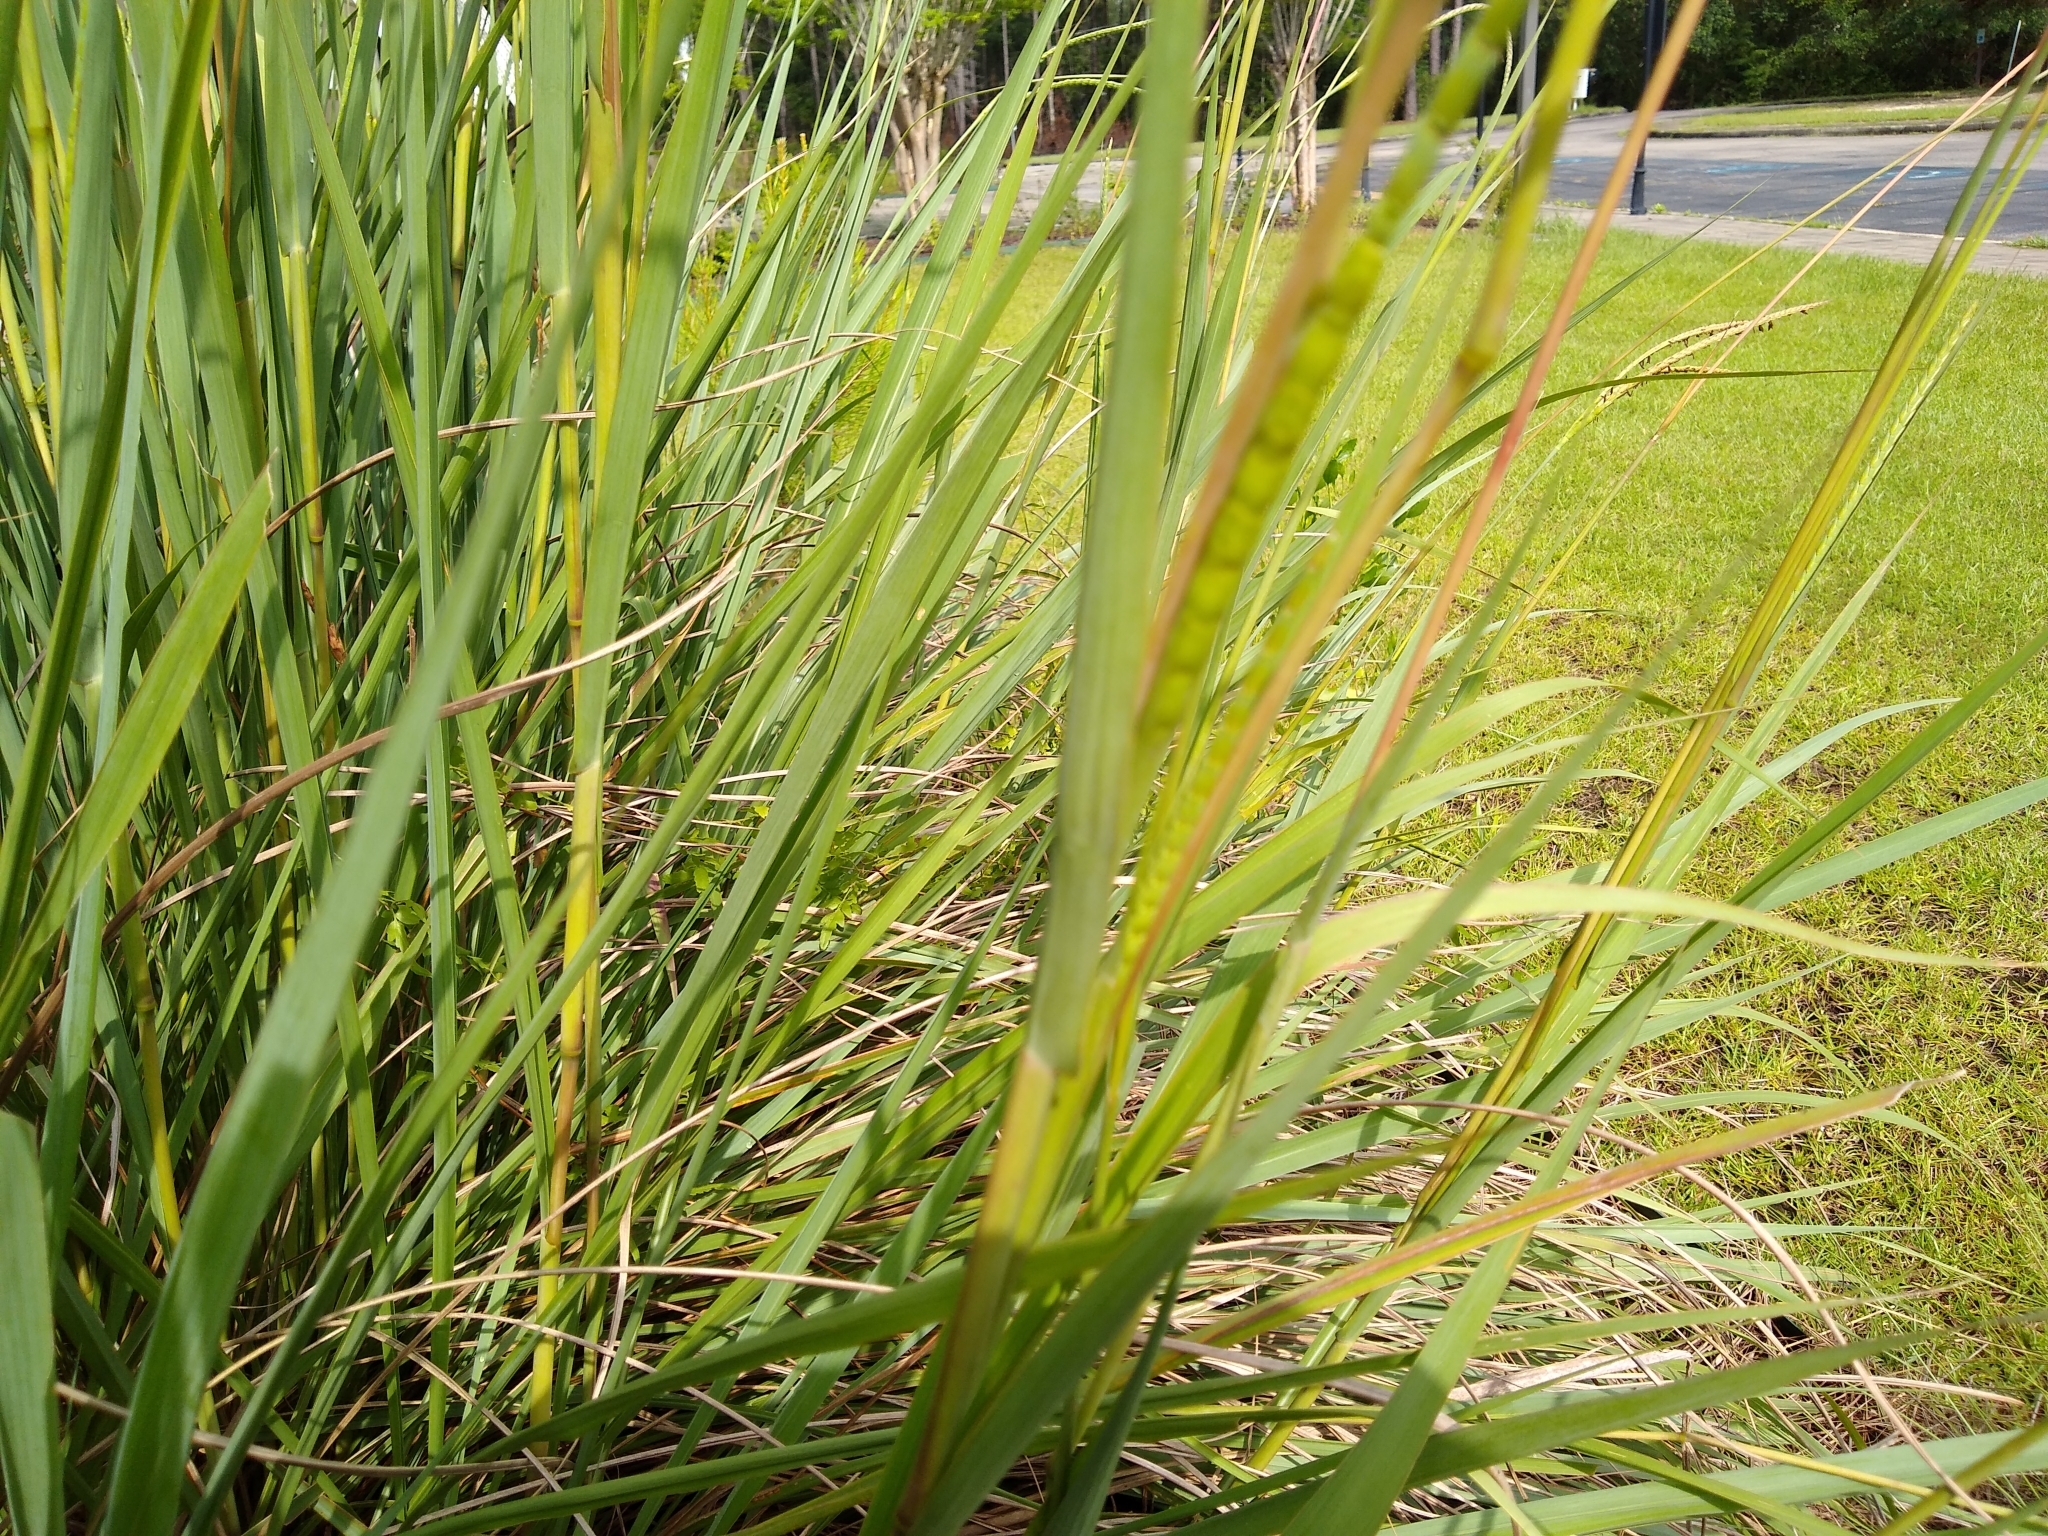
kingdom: Plantae
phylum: Tracheophyta
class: Liliopsida
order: Poales
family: Poaceae
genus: Tripsacum
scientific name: Tripsacum dactyloides
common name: Buffalo-grass
